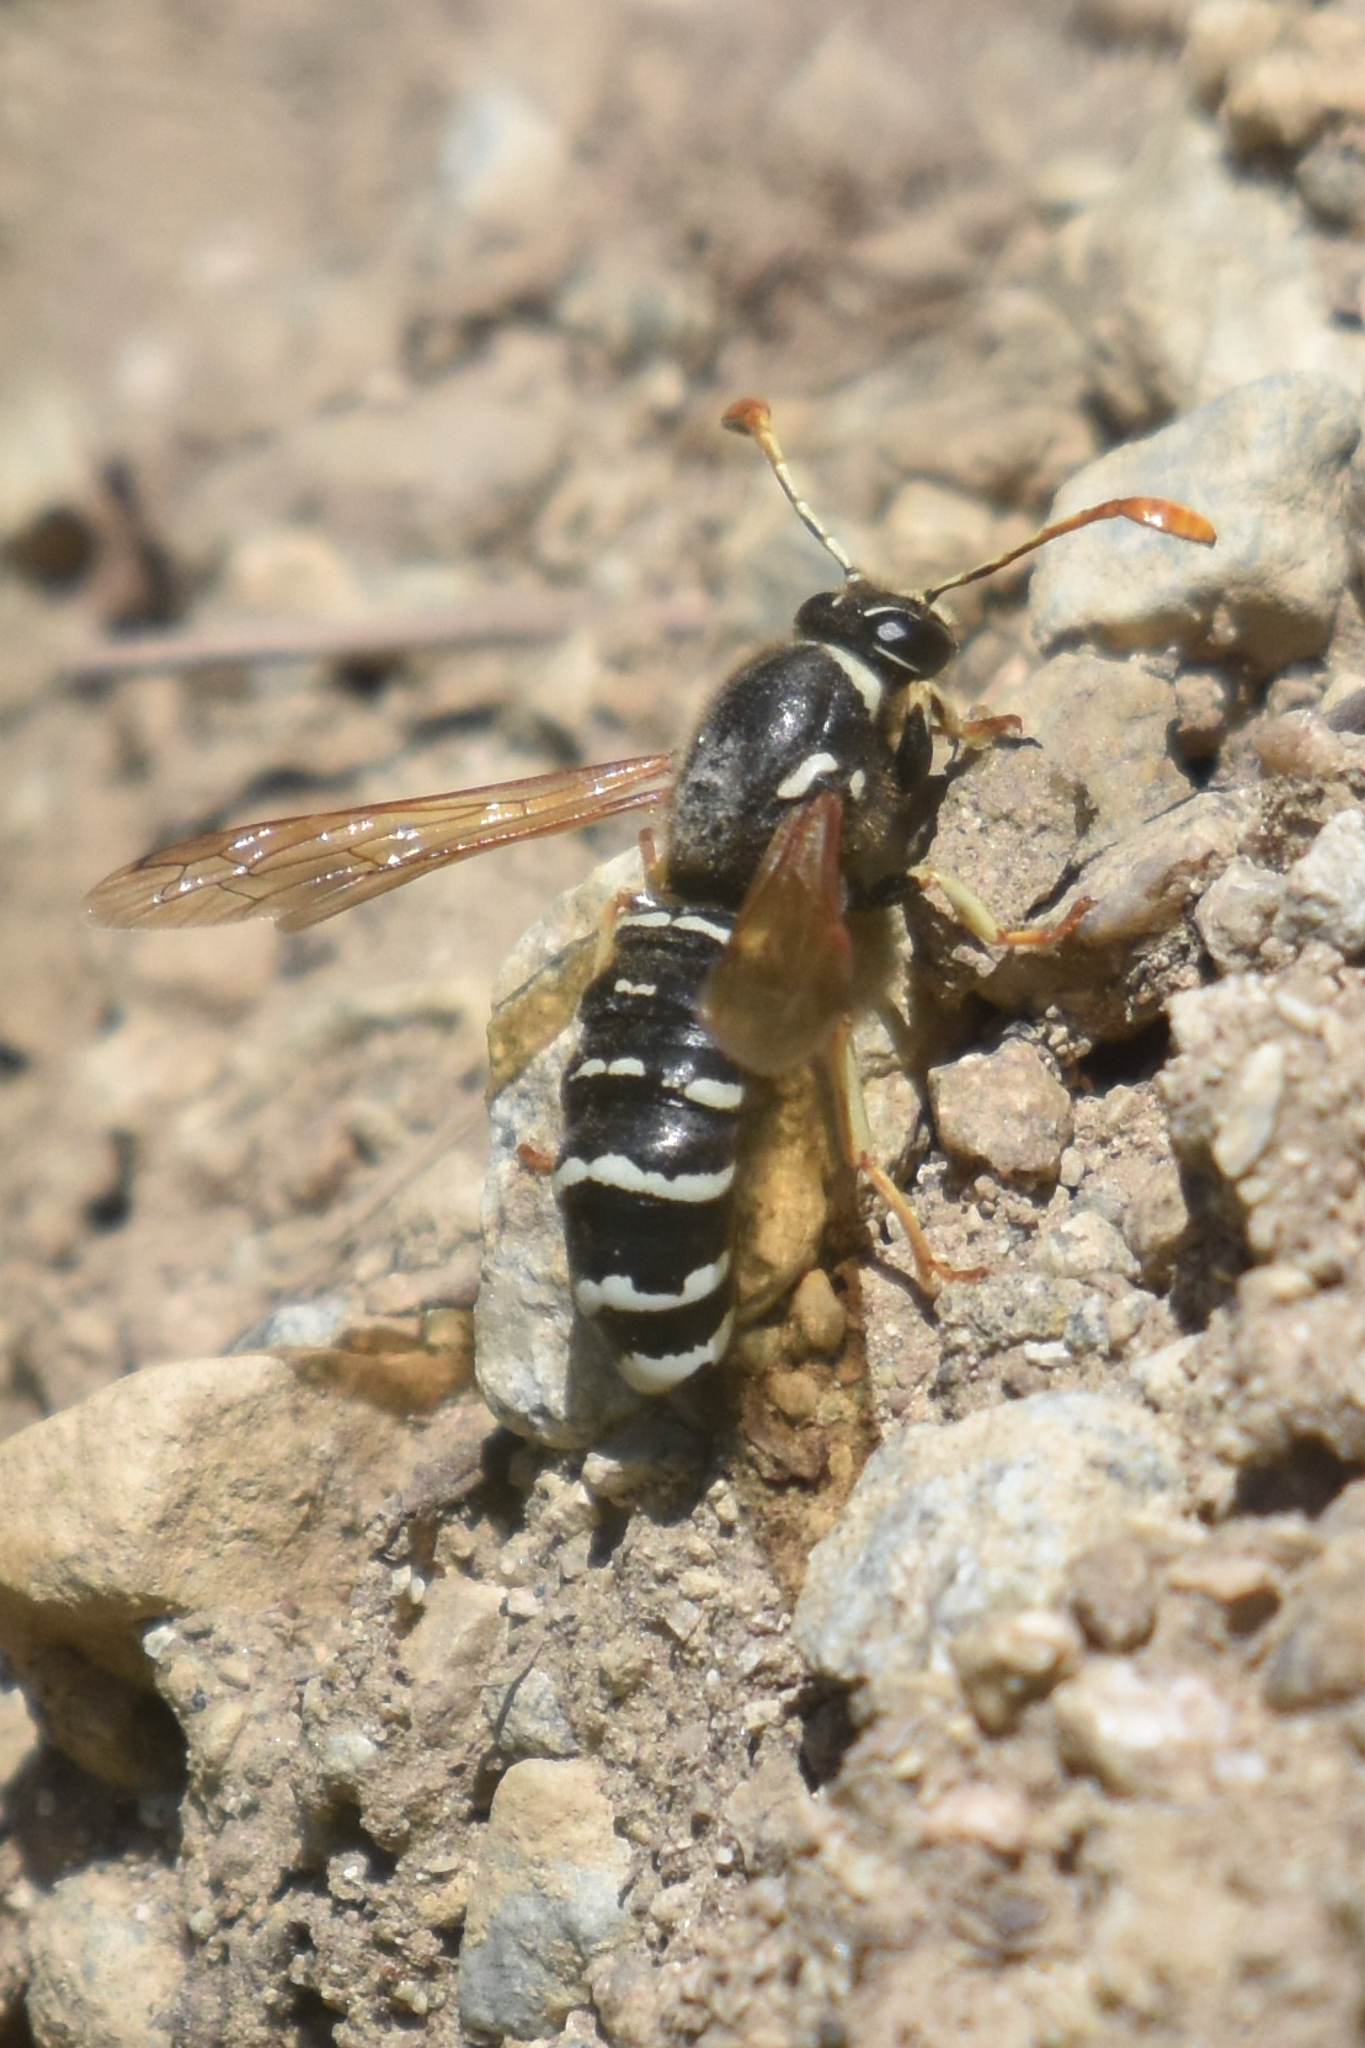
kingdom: Animalia
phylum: Arthropoda
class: Insecta
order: Hymenoptera
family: Masaridae
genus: Pseudomasaris
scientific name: Pseudomasaris vespoides
